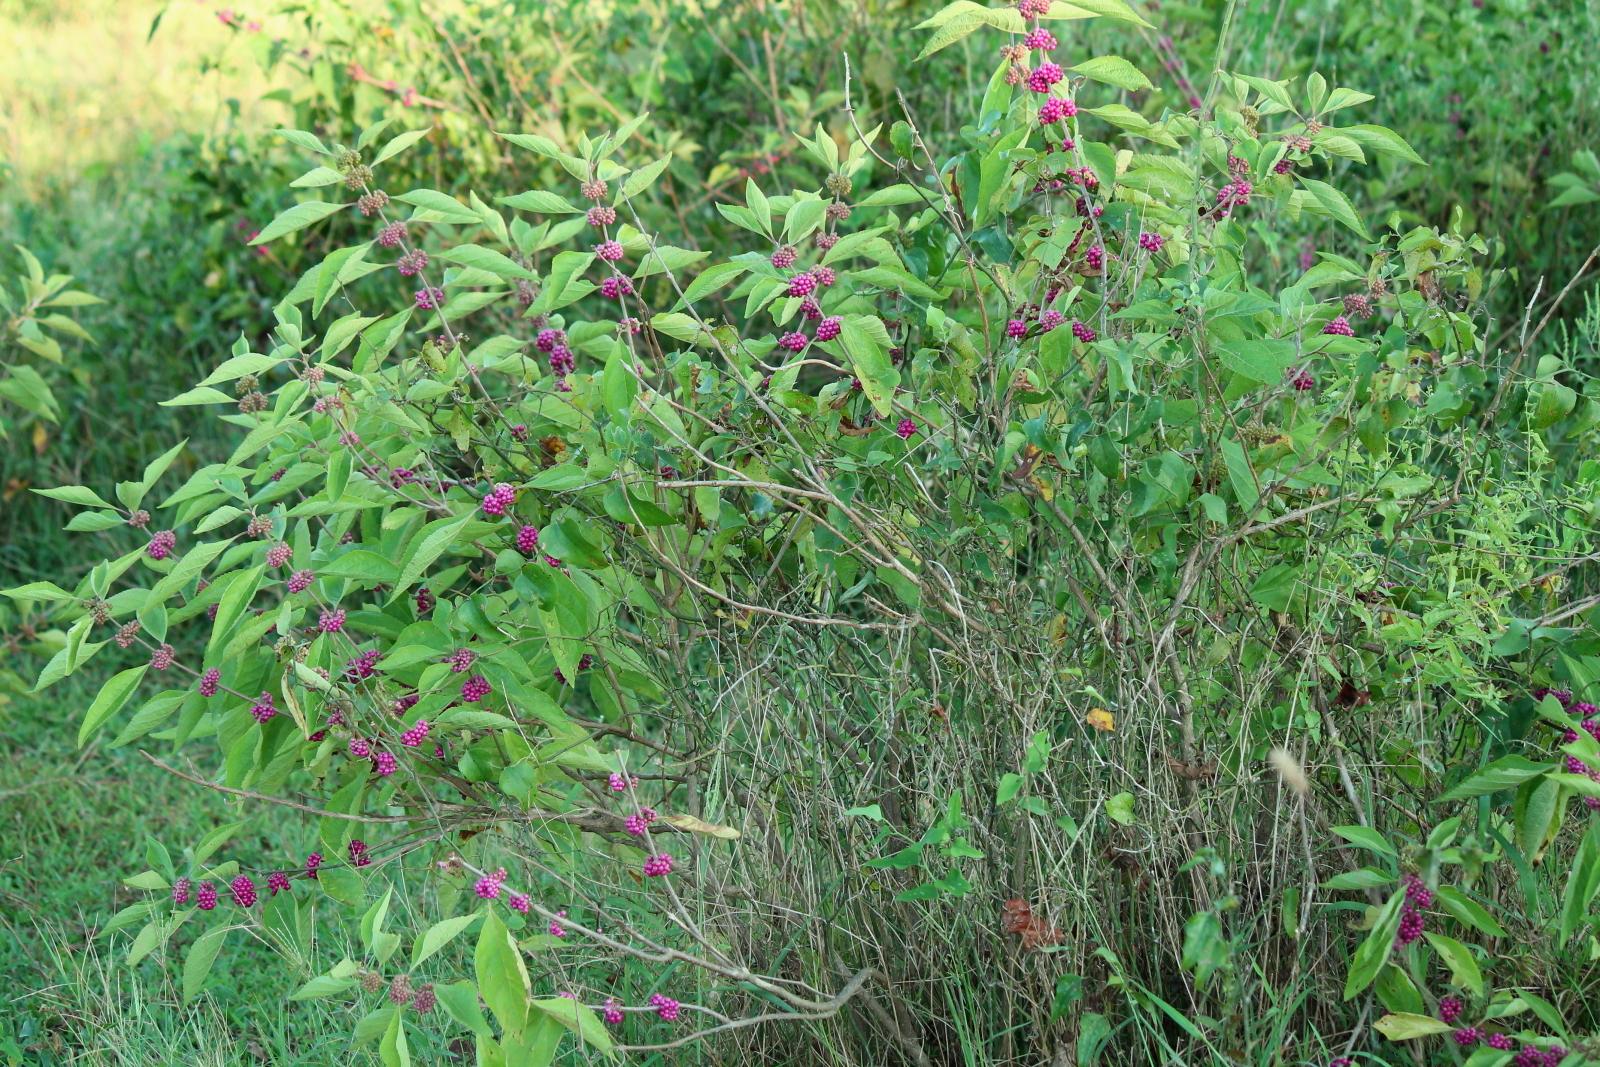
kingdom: Plantae
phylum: Tracheophyta
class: Magnoliopsida
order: Lamiales
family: Lamiaceae
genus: Callicarpa
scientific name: Callicarpa americana
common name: American beautyberry
